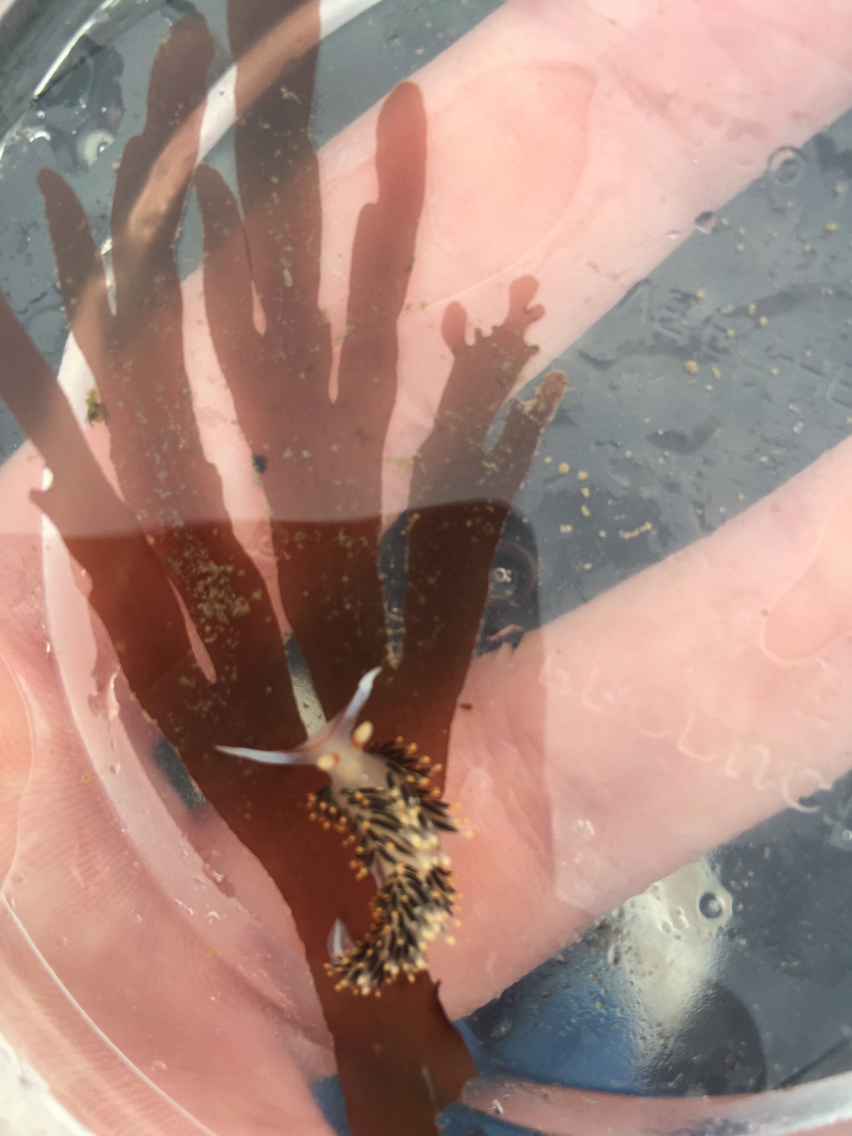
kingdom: Animalia
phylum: Mollusca
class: Gastropoda
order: Nudibranchia
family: Facelinidae
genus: Phidiana
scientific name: Phidiana hiltoni
